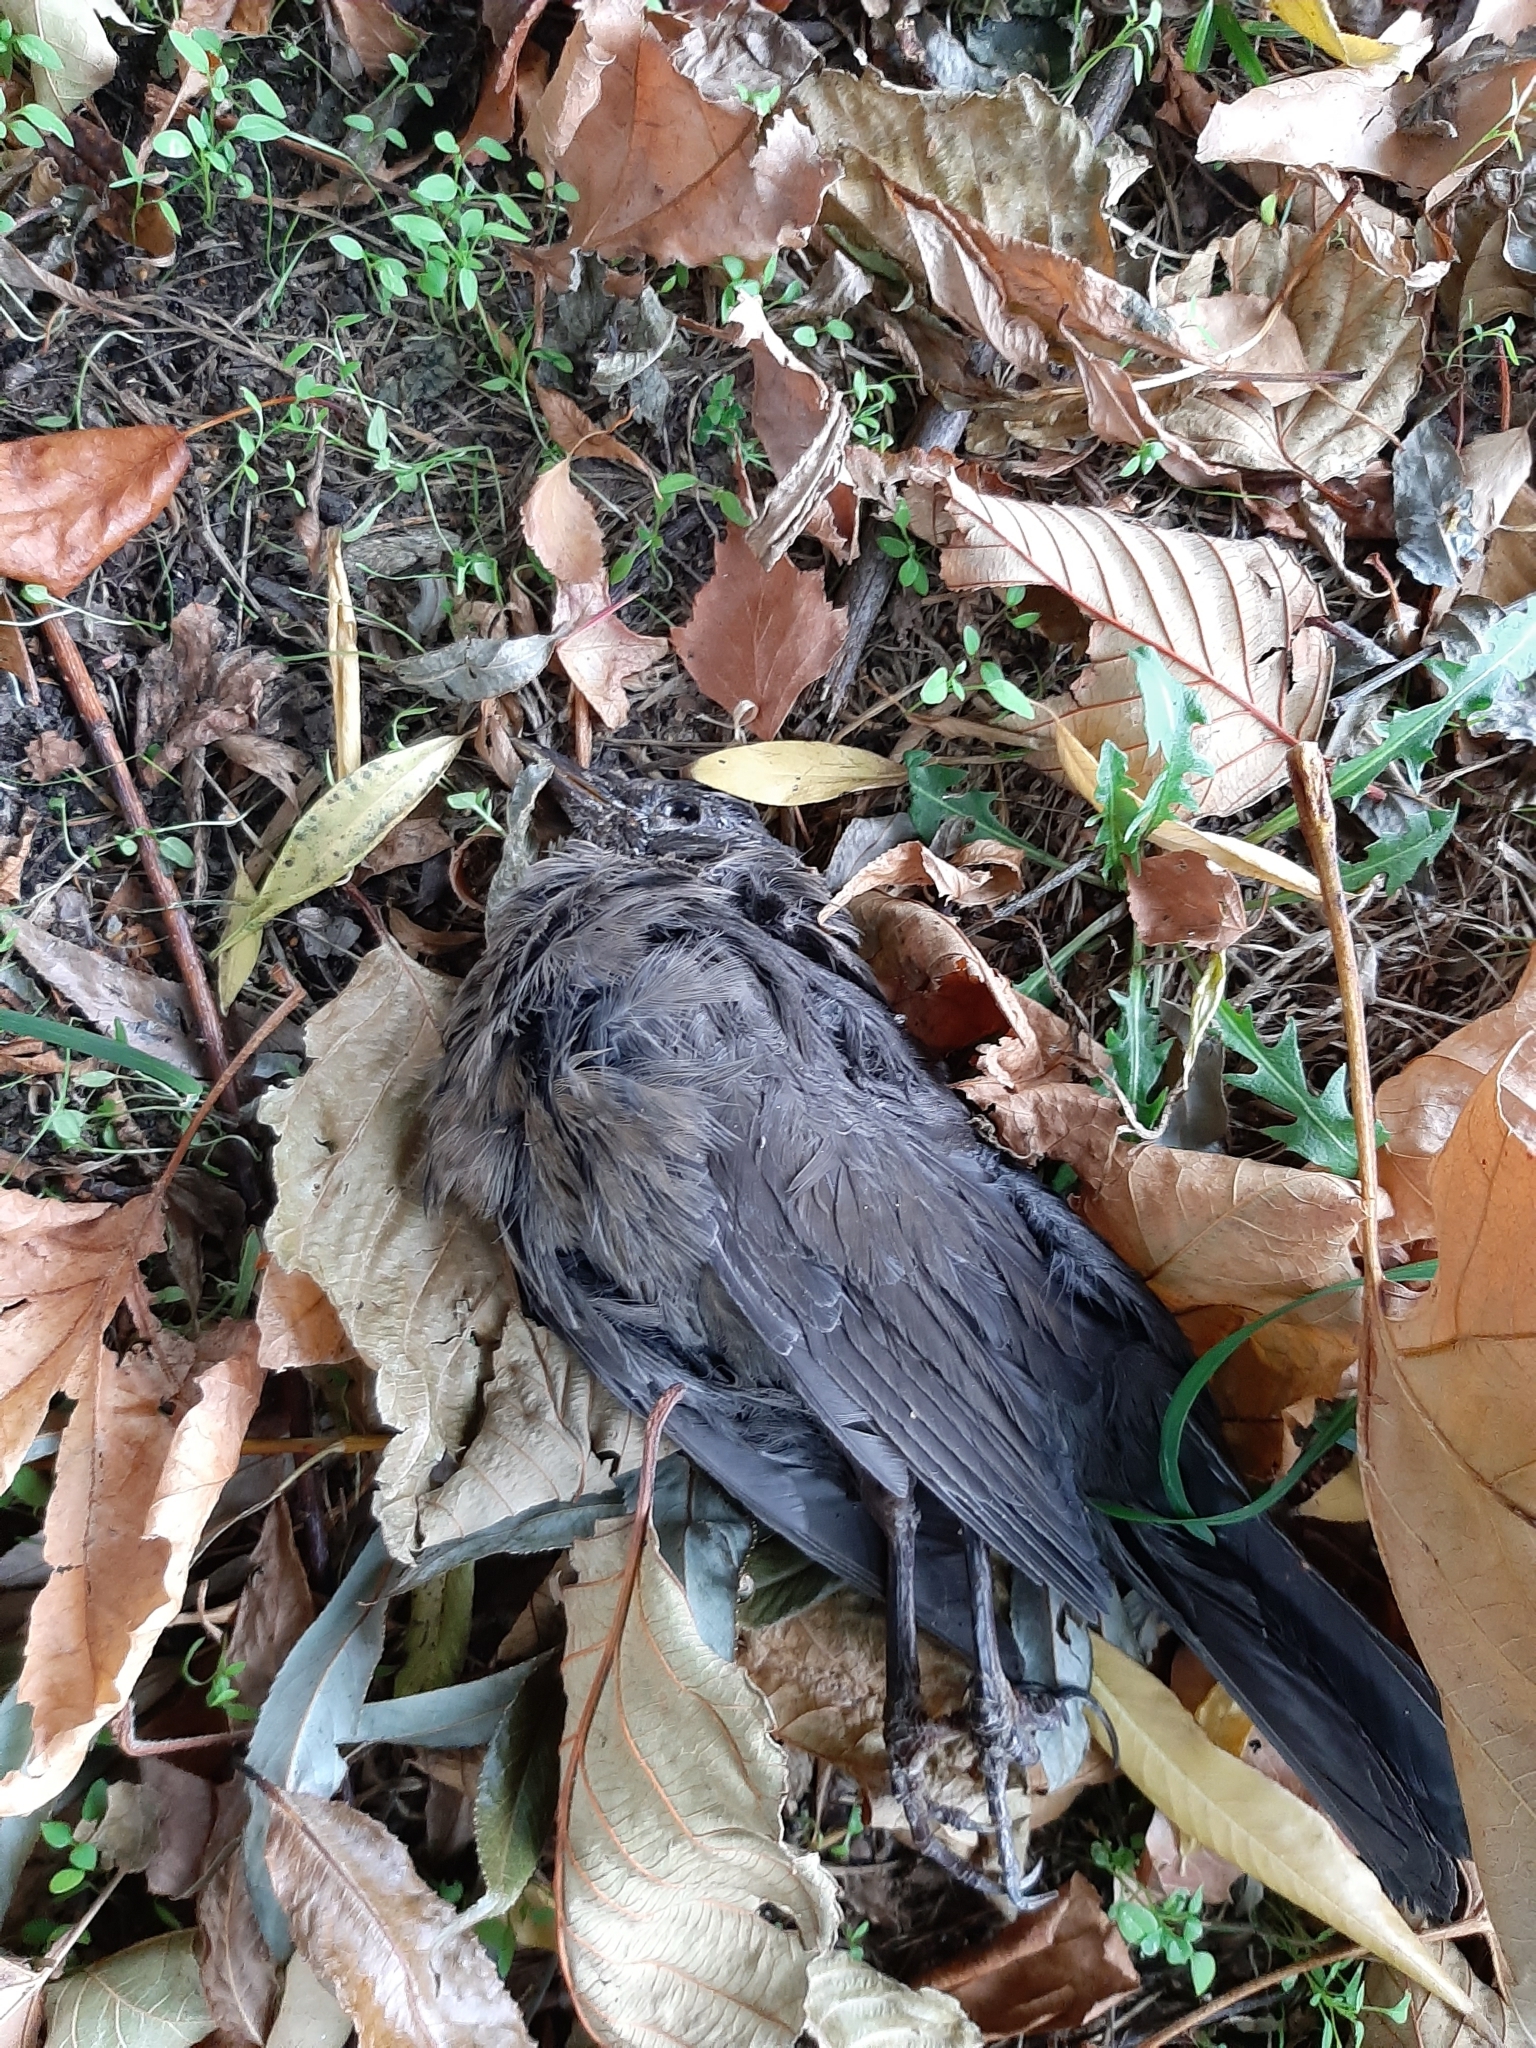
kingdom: Animalia
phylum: Chordata
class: Aves
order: Passeriformes
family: Turdidae
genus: Turdus
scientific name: Turdus merula
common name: Common blackbird
